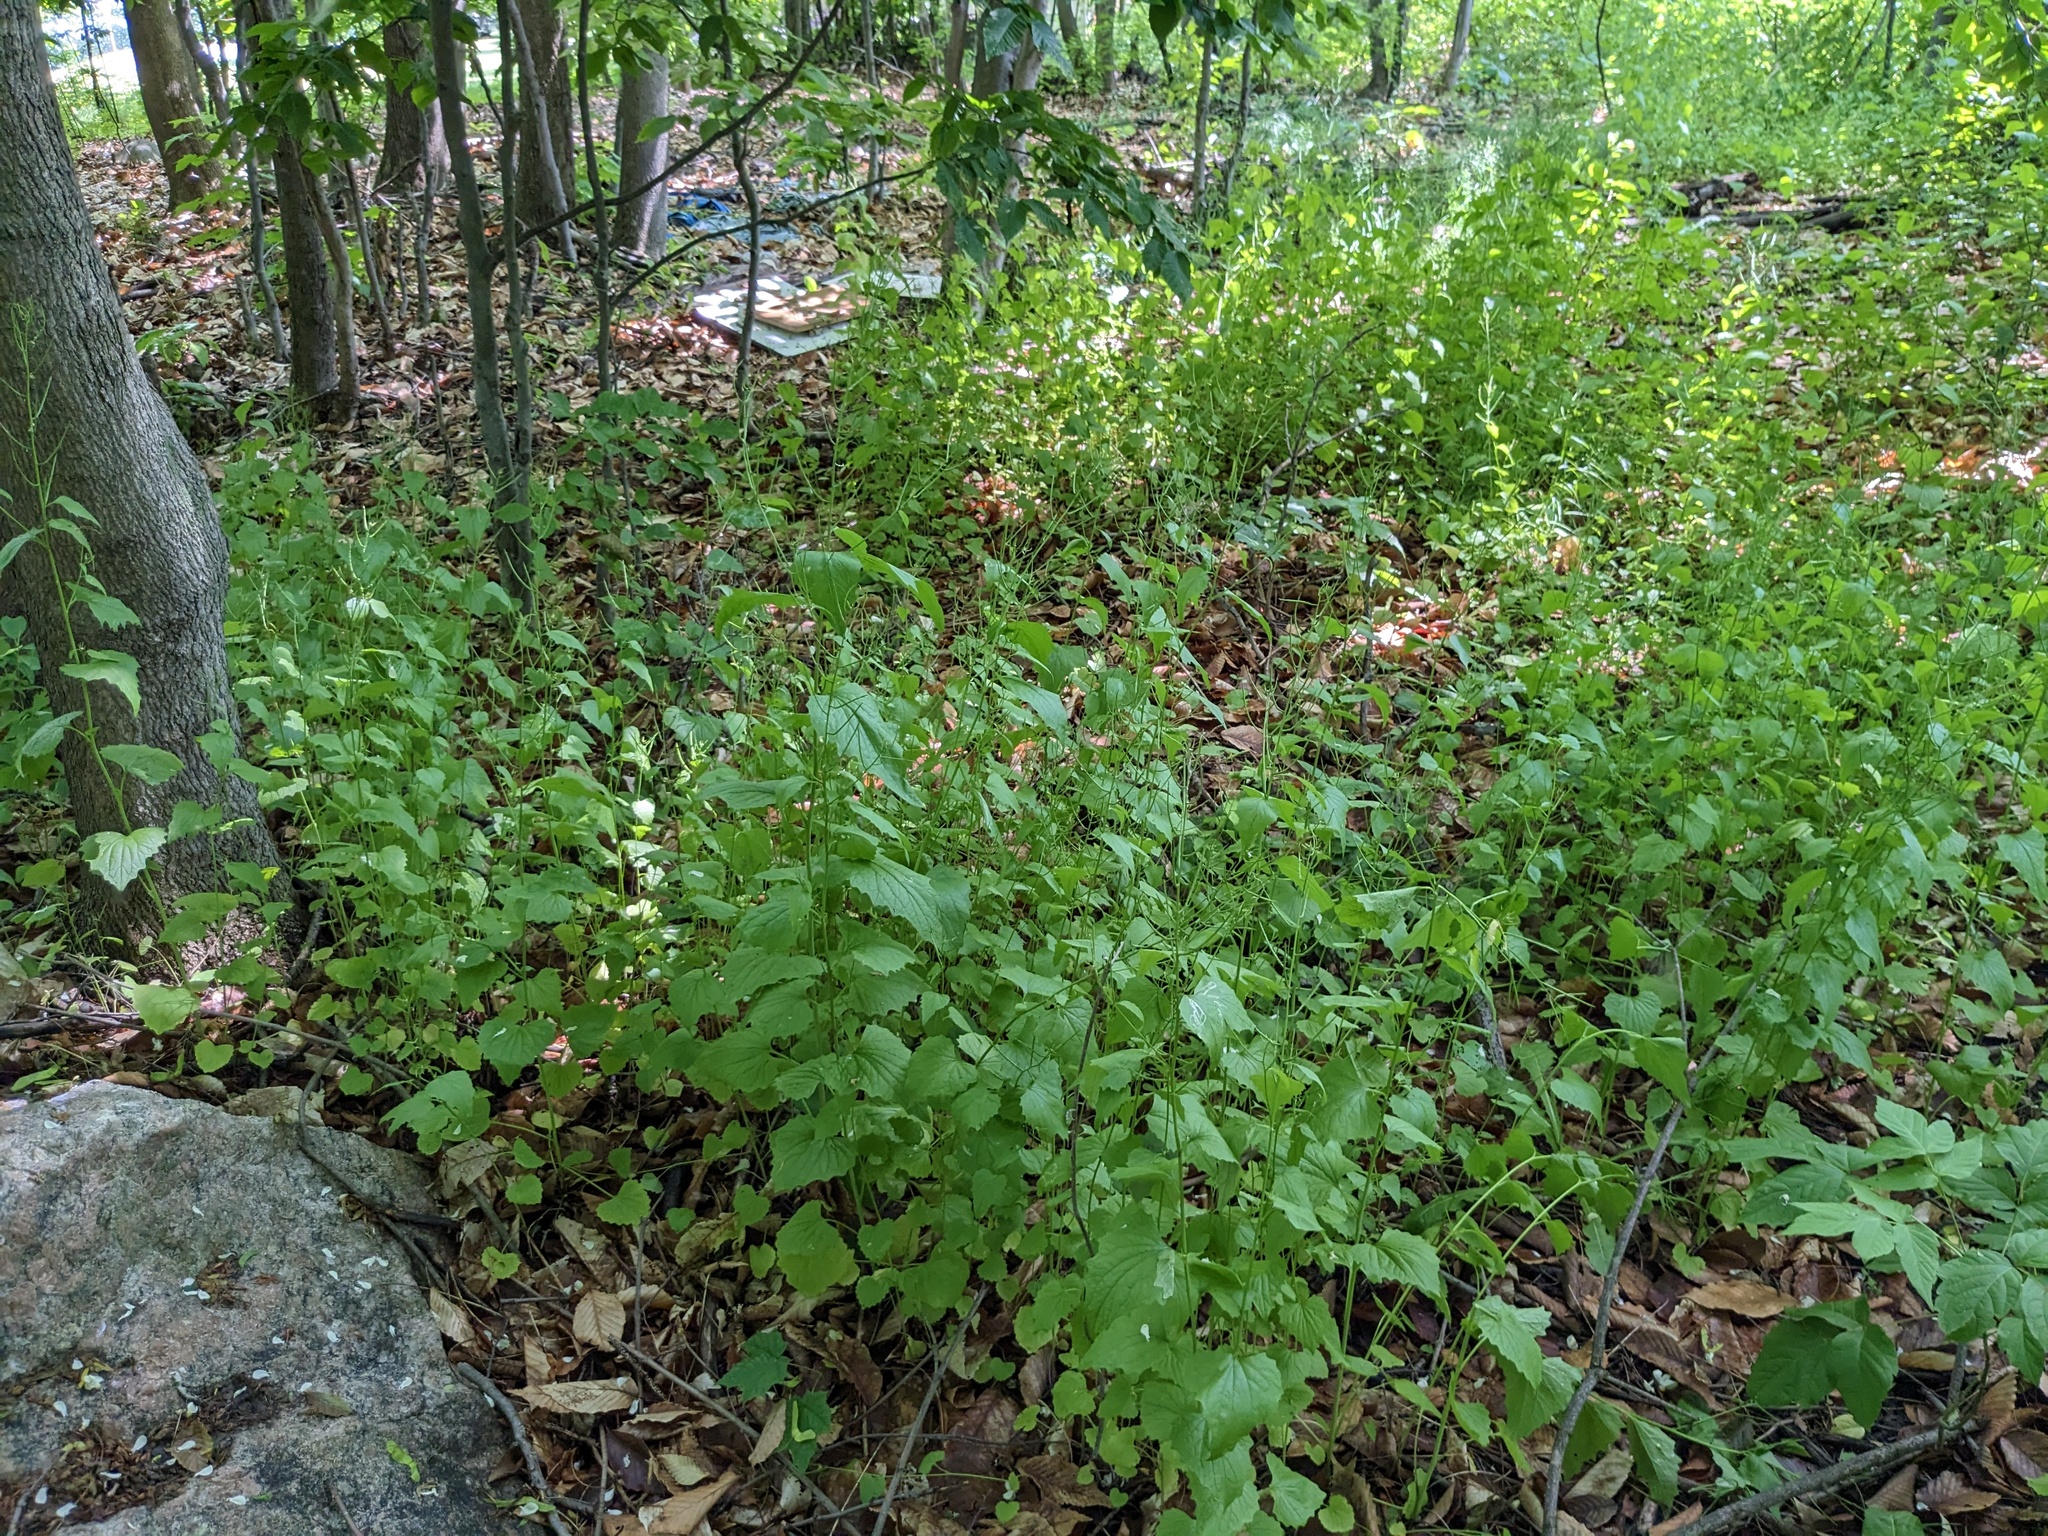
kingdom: Plantae
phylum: Tracheophyta
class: Magnoliopsida
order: Brassicales
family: Brassicaceae
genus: Alliaria
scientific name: Alliaria petiolata
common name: Garlic mustard
